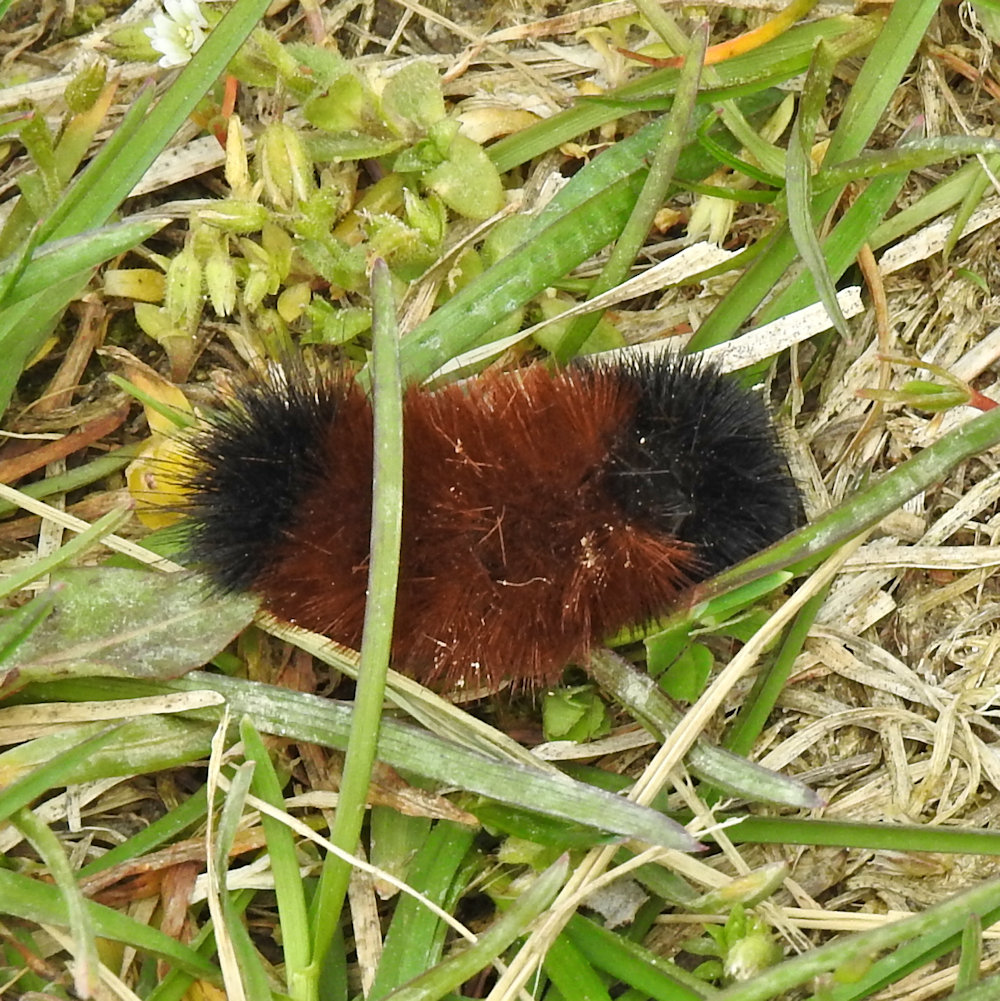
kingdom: Animalia
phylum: Arthropoda
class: Insecta
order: Lepidoptera
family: Erebidae
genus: Pyrrharctia
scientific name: Pyrrharctia isabella
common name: Isabella tiger moth
